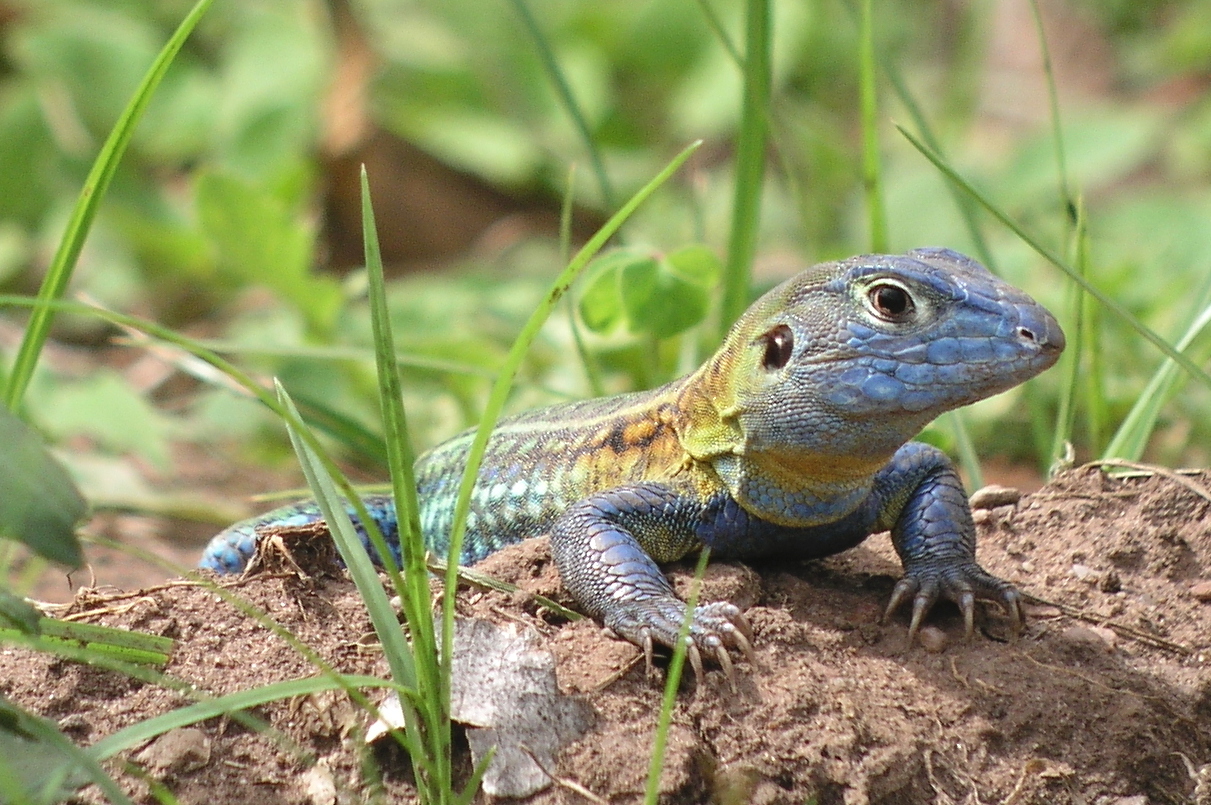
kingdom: Animalia
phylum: Chordata
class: Squamata
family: Teiidae
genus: Teius
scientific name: Teius teyou
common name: Four-toed tegu
